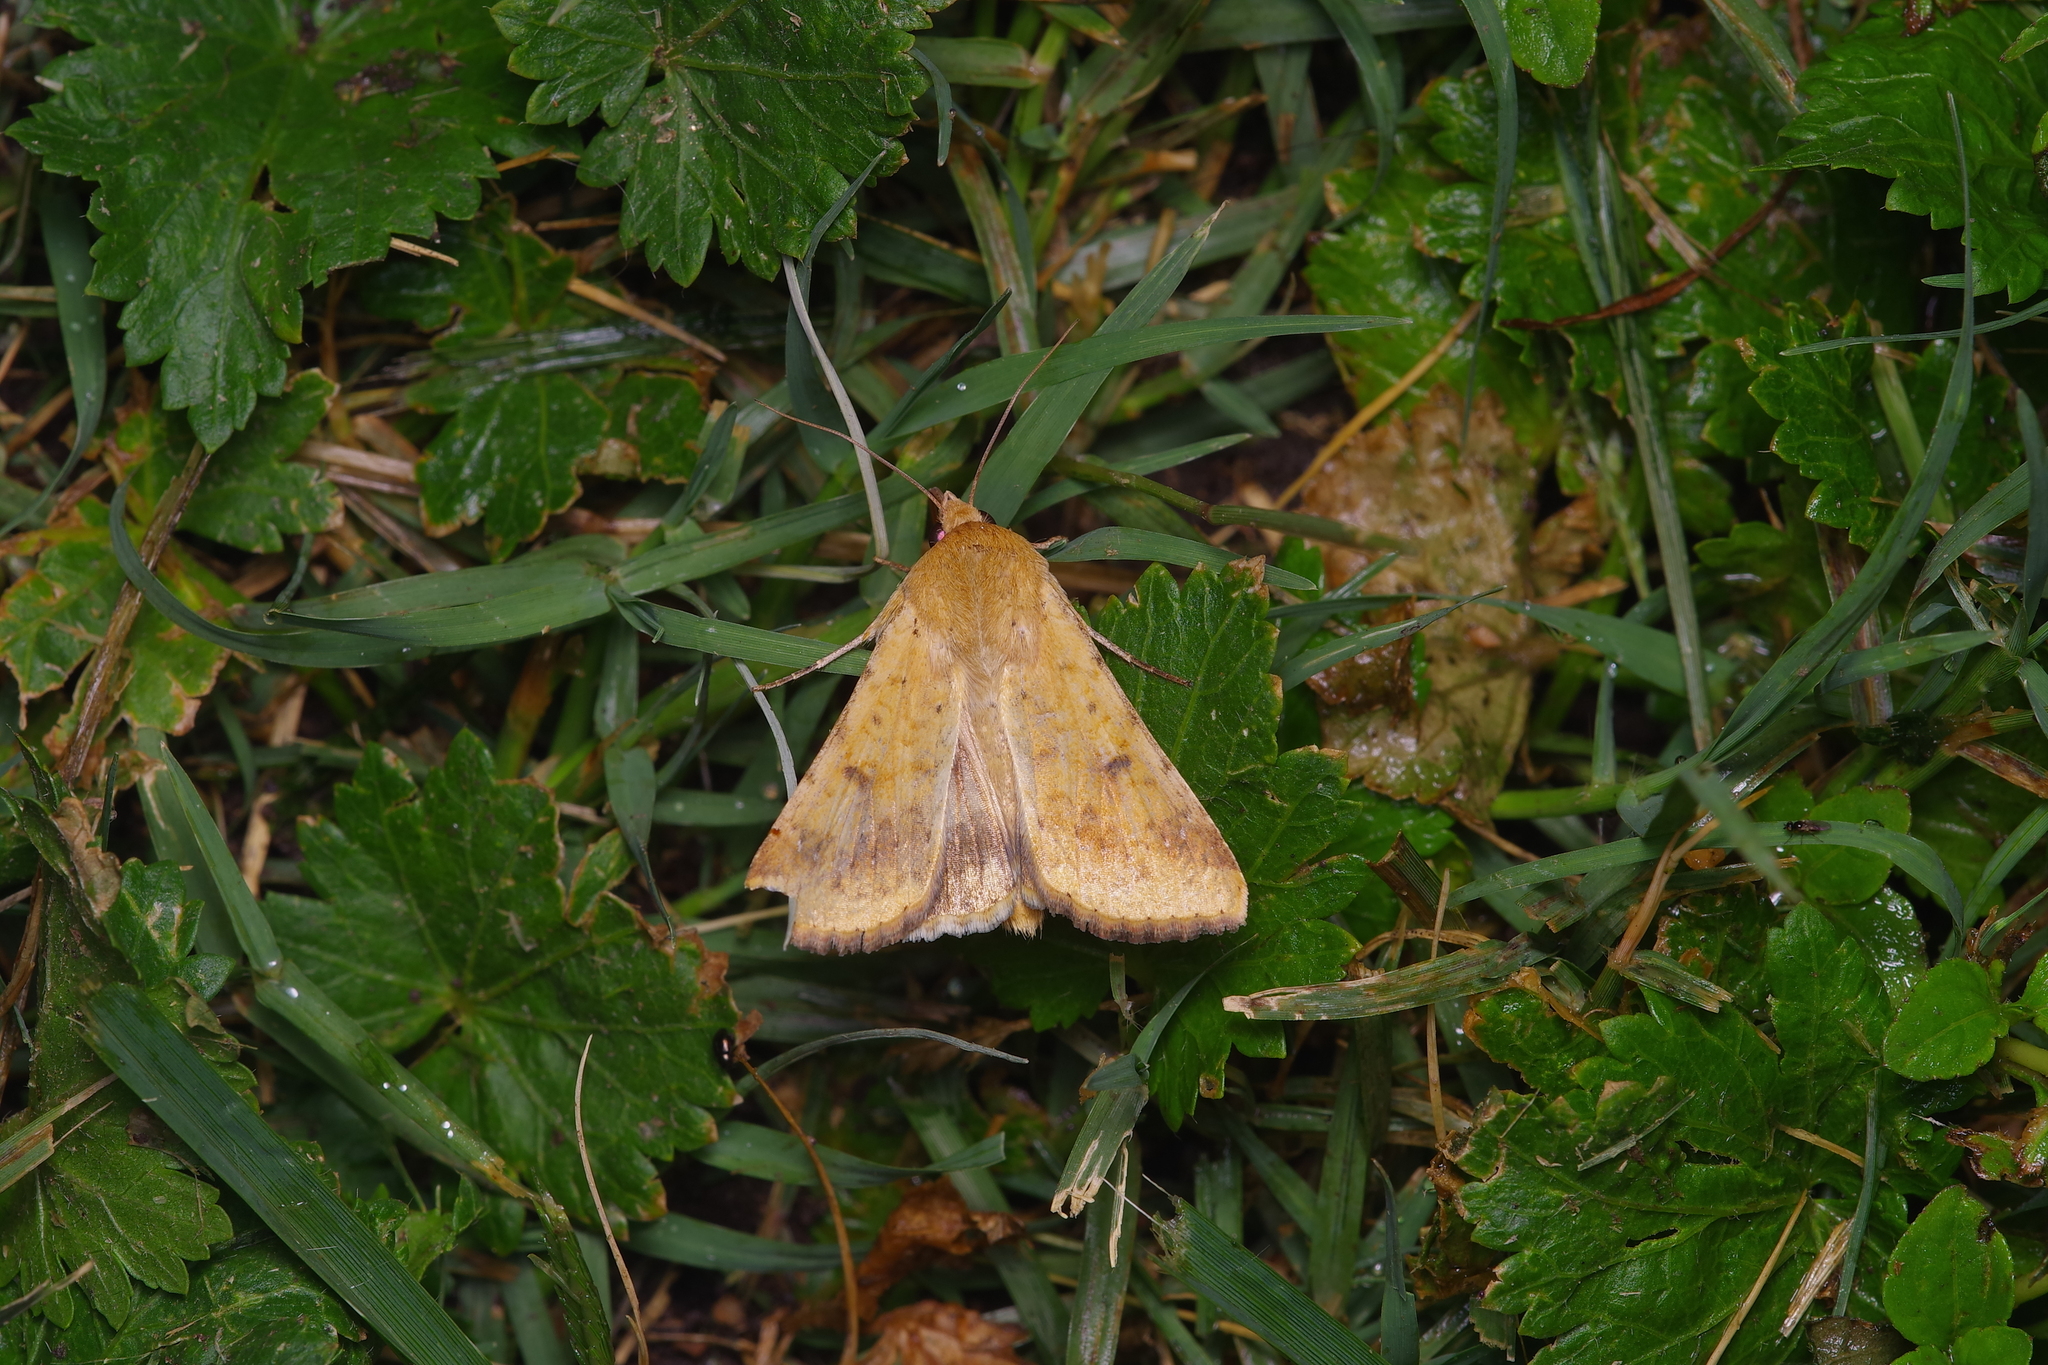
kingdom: Animalia
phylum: Arthropoda
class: Insecta
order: Lepidoptera
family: Noctuidae
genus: Helicoverpa
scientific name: Helicoverpa zea
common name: Bollworm
